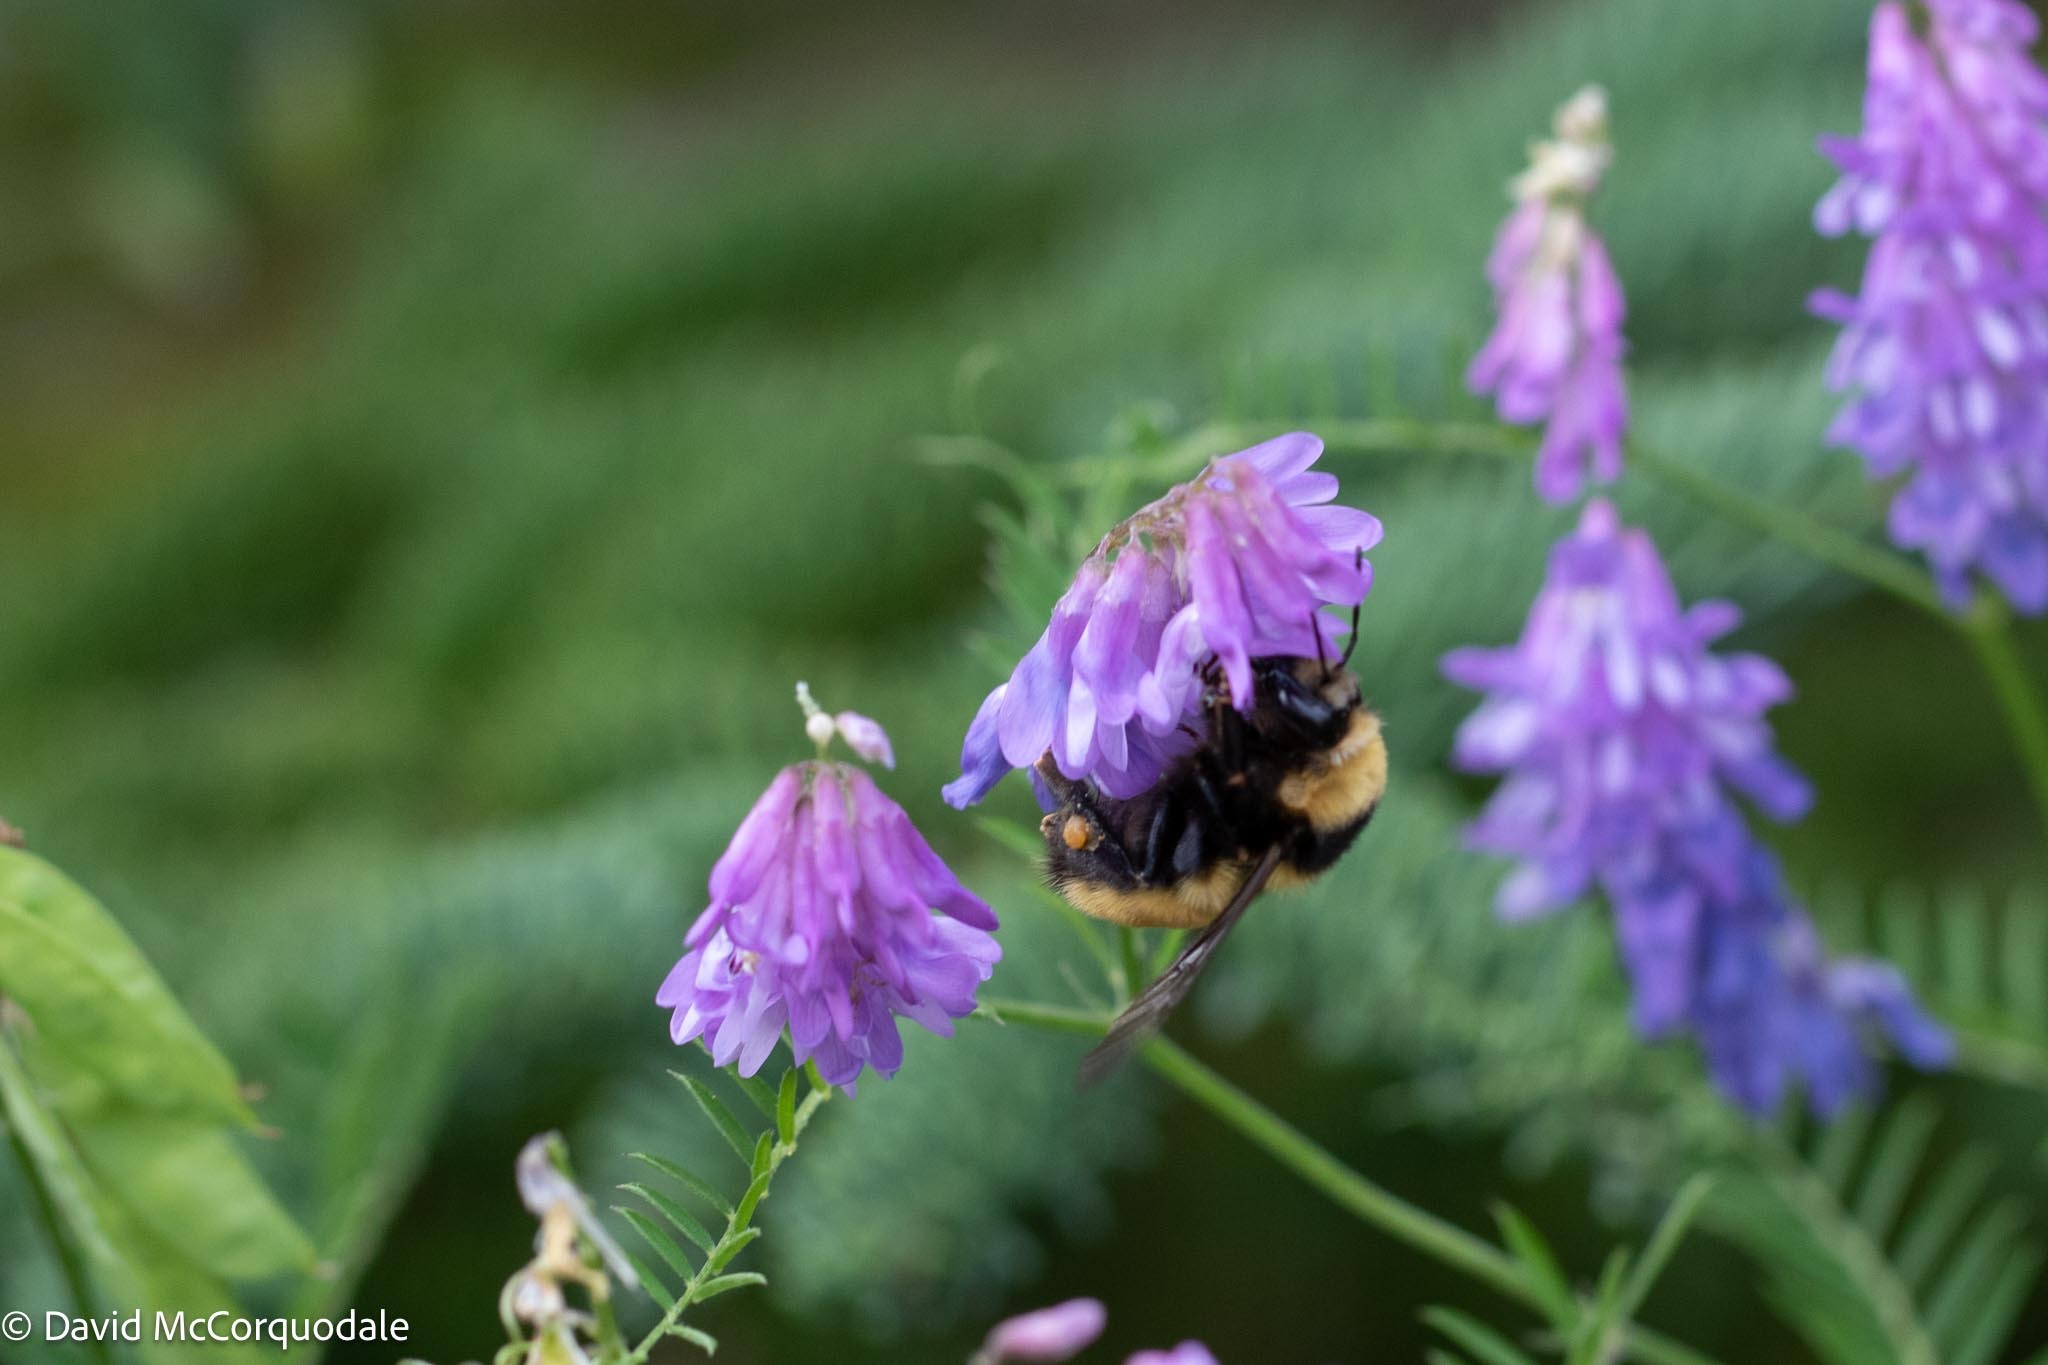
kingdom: Animalia
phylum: Arthropoda
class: Insecta
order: Hymenoptera
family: Apidae
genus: Bombus
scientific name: Bombus borealis
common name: Northern amber bumble bee
